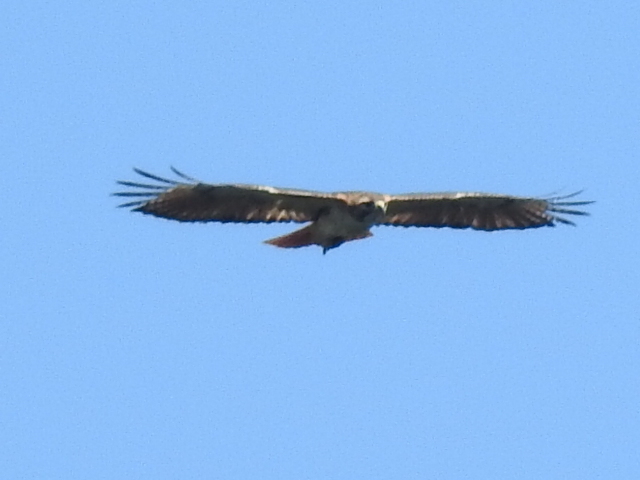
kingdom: Animalia
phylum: Chordata
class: Aves
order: Accipitriformes
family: Accipitridae
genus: Buteo
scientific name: Buteo jamaicensis
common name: Red-tailed hawk
